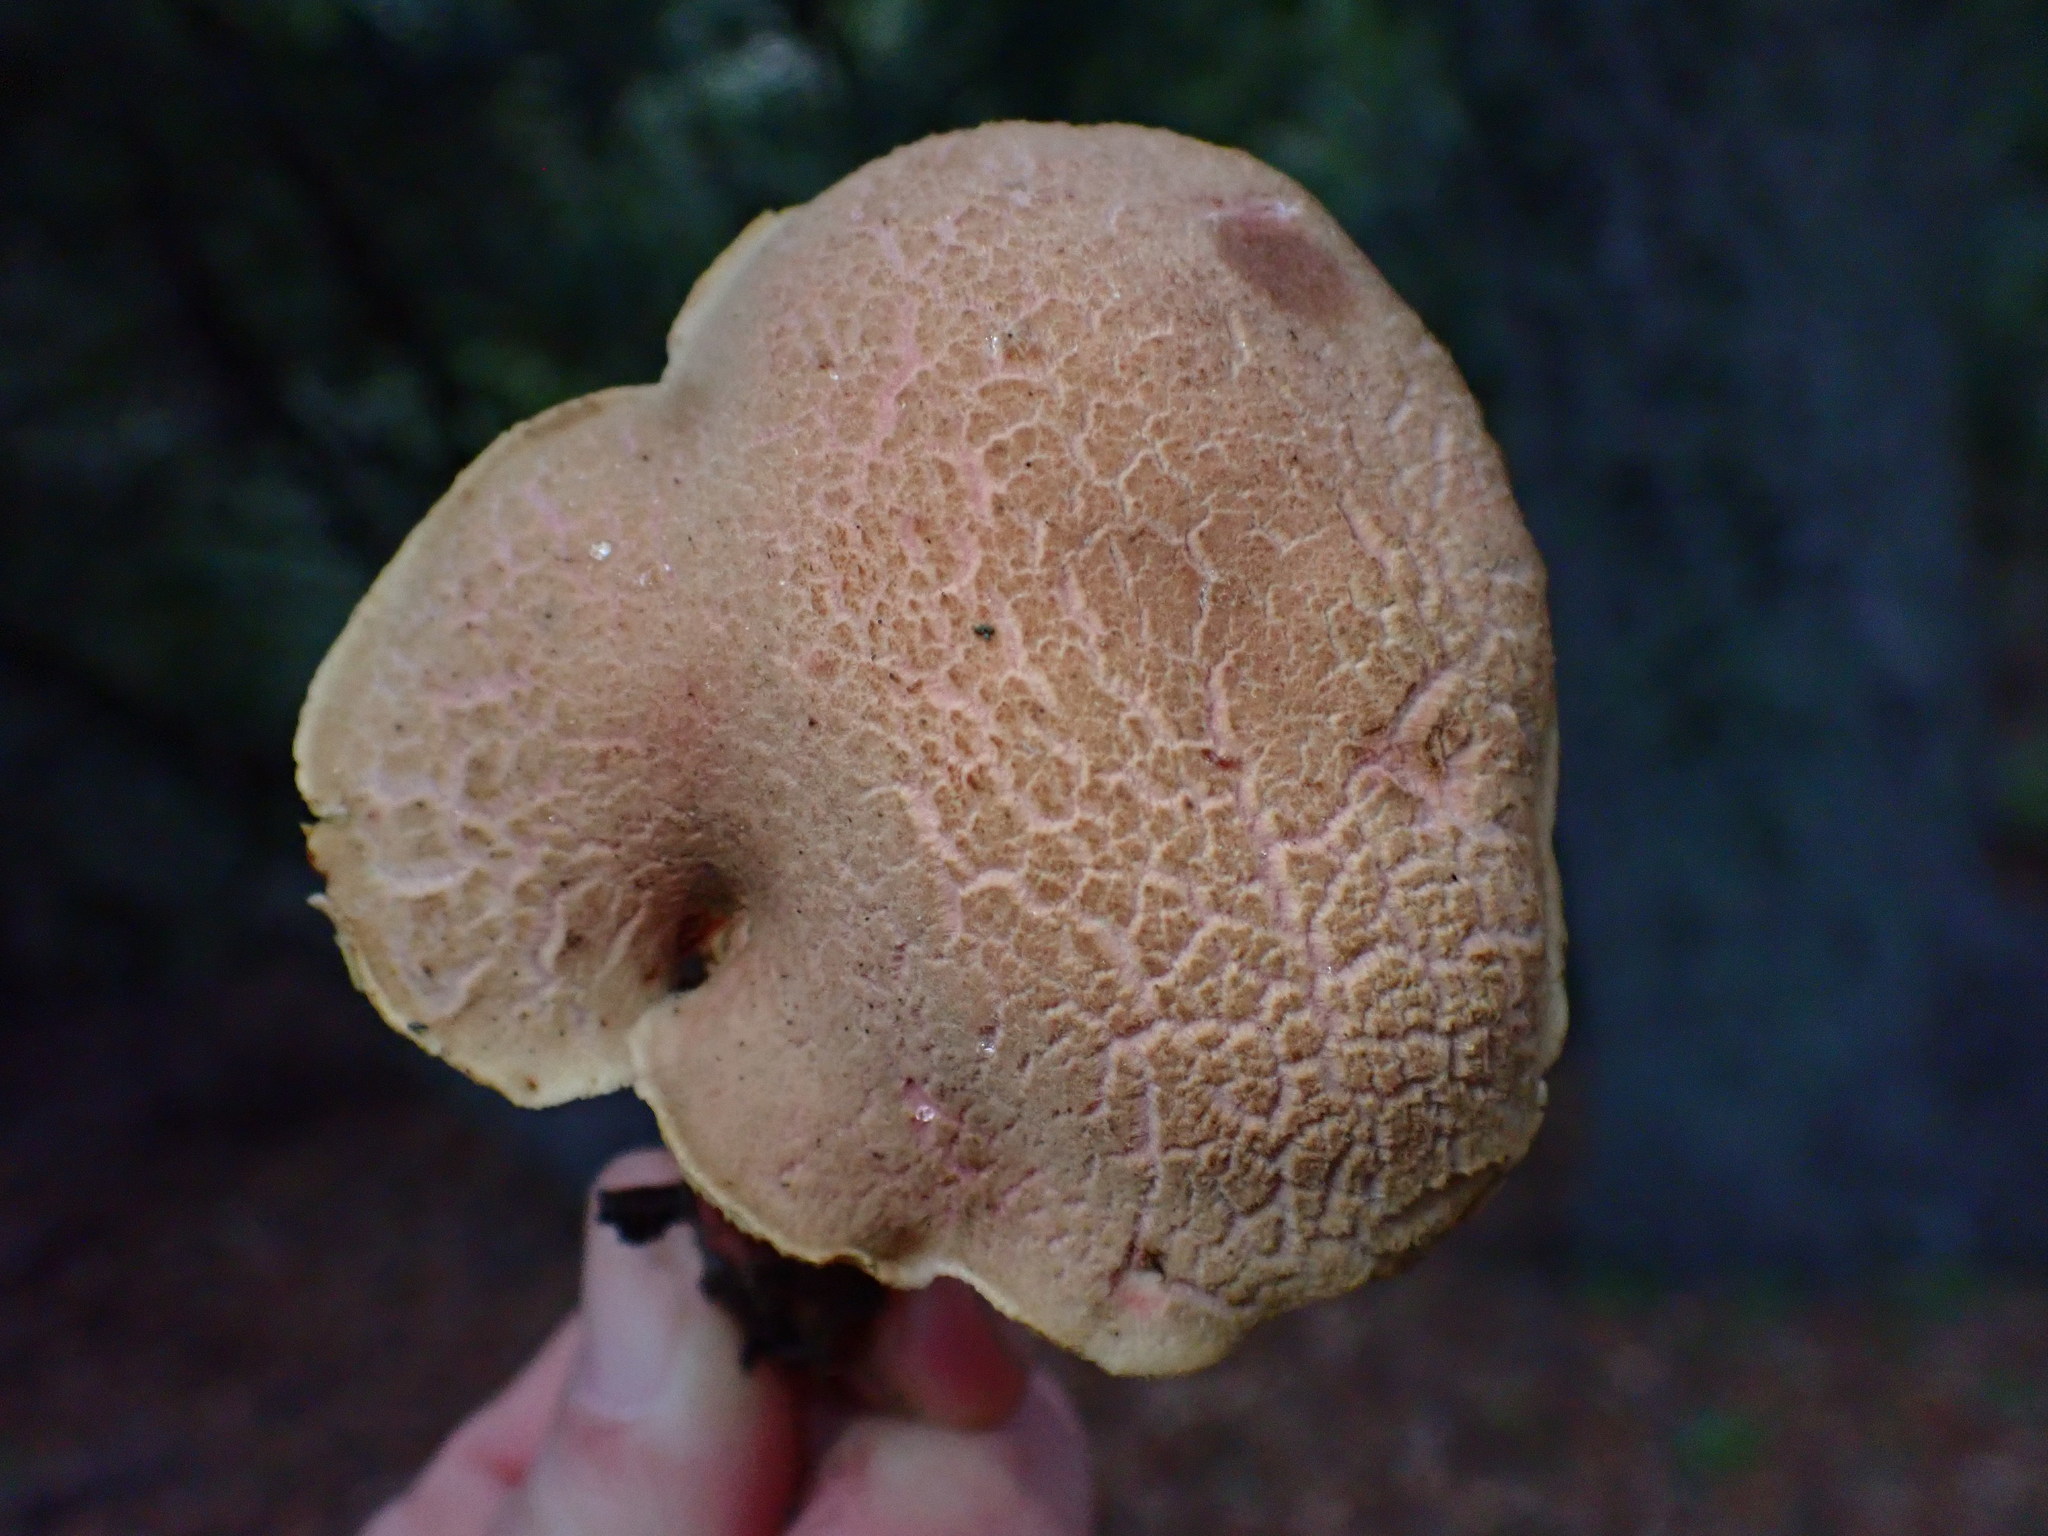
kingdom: Fungi
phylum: Basidiomycota
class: Agaricomycetes
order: Boletales
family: Boletaceae
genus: Xerocomellus
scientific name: Xerocomellus dryophilus
